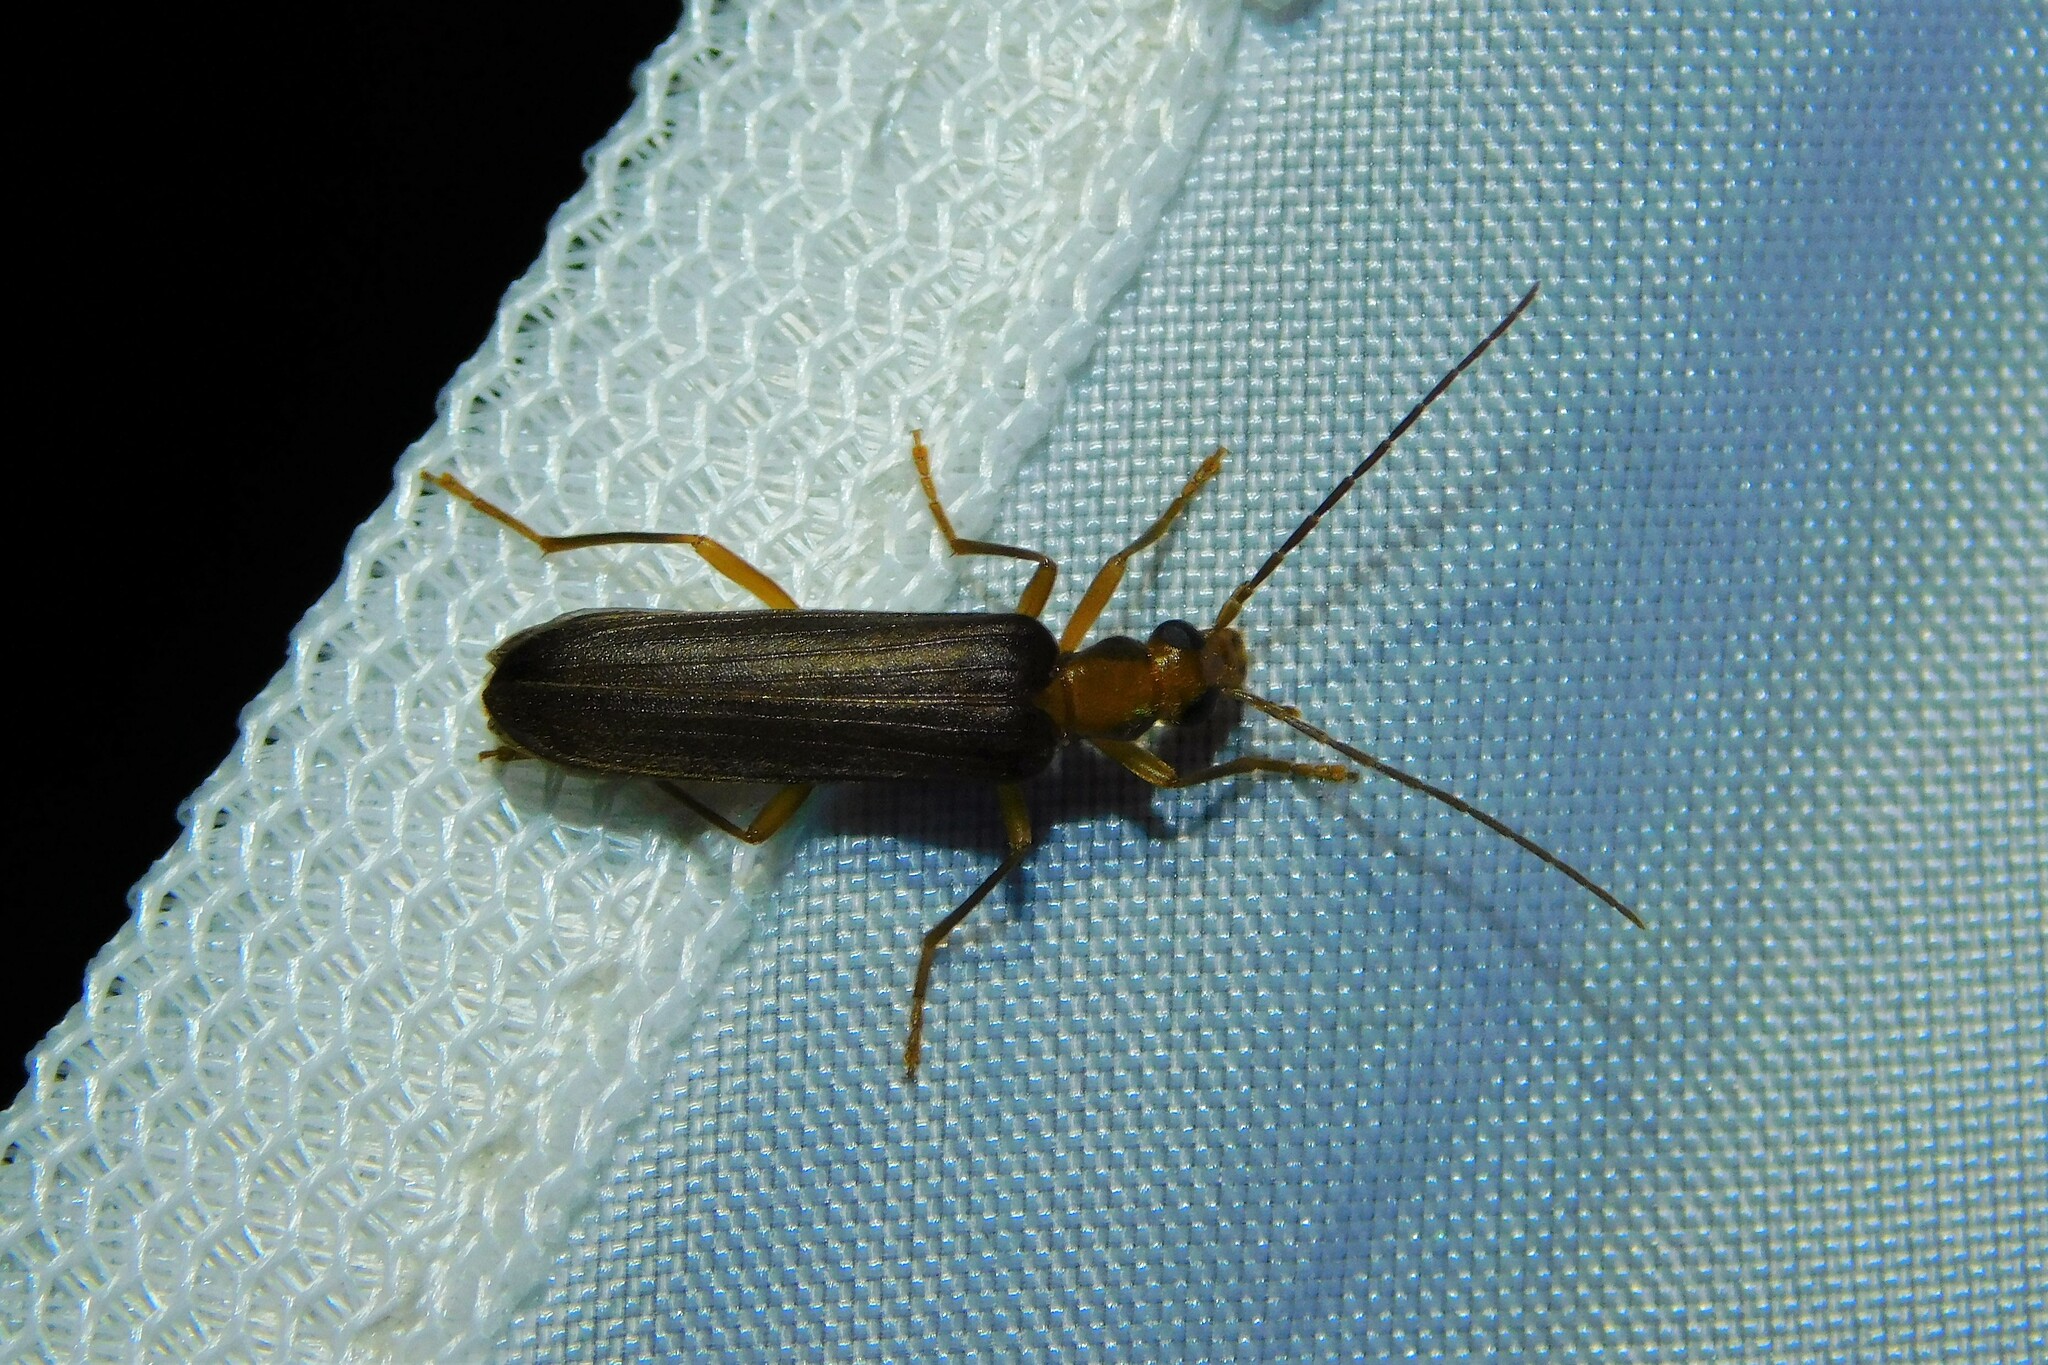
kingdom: Animalia
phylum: Arthropoda
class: Insecta
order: Coleoptera
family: Oedemeridae
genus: Nacerdes
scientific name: Nacerdes carniolica
